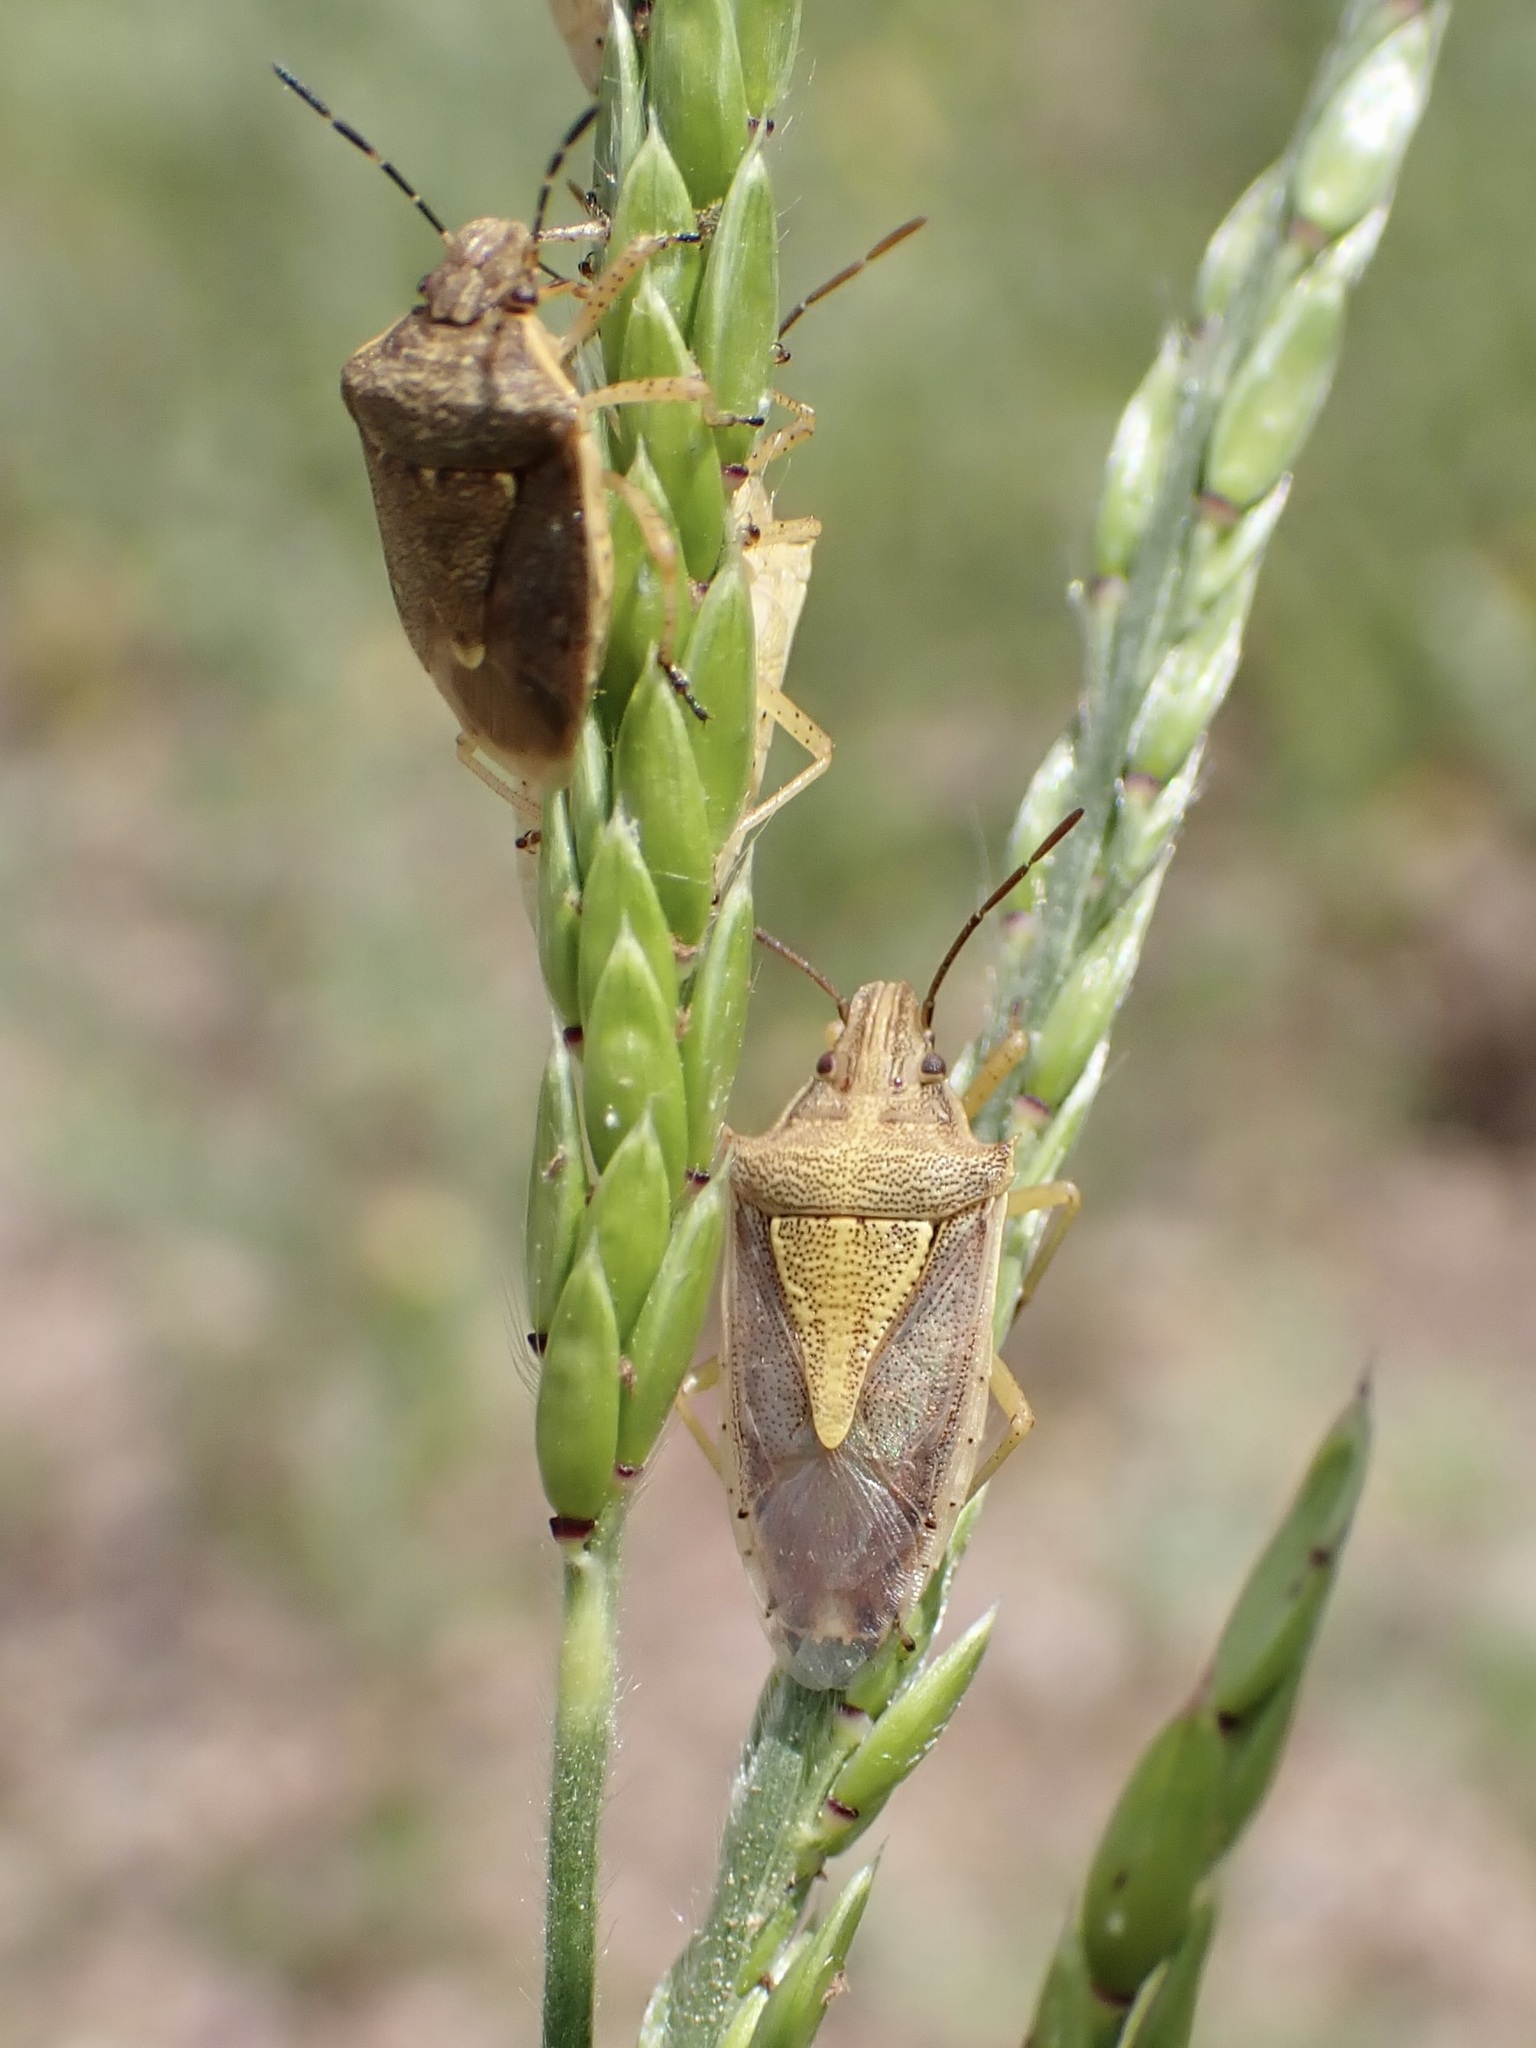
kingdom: Animalia
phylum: Arthropoda
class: Insecta
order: Hemiptera
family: Pentatomidae
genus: Oebalus
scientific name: Oebalus mexicanus
